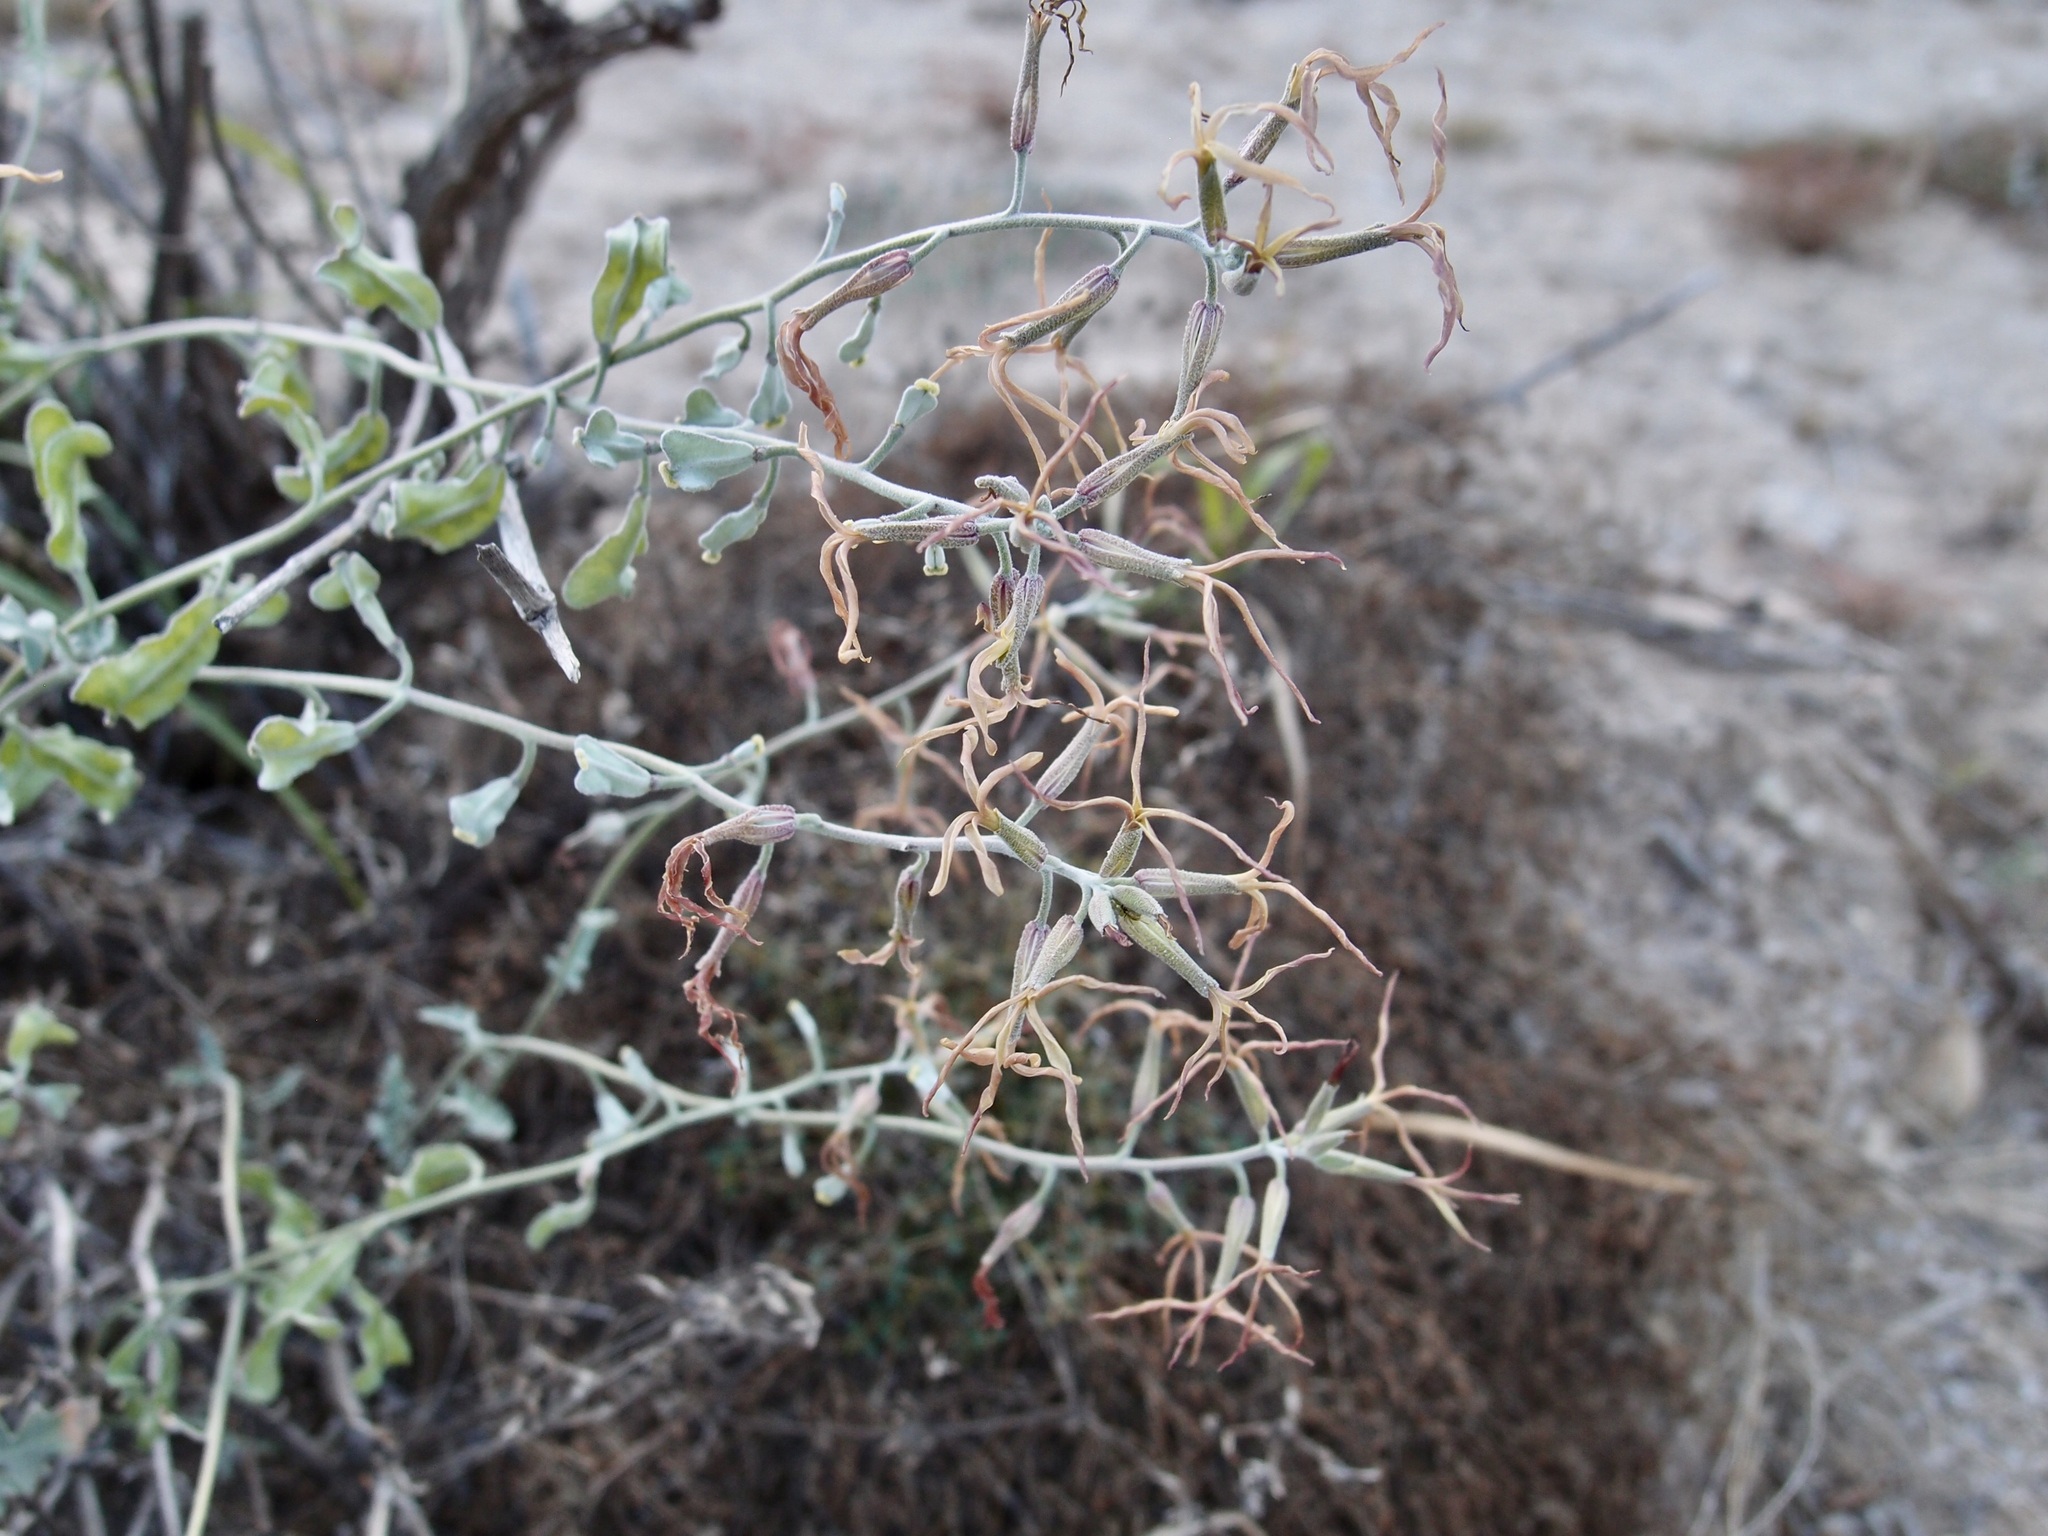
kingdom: Plantae
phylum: Tracheophyta
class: Magnoliopsida
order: Brassicales
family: Brassicaceae
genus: Lyrocarpa
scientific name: Lyrocarpa coulteri
